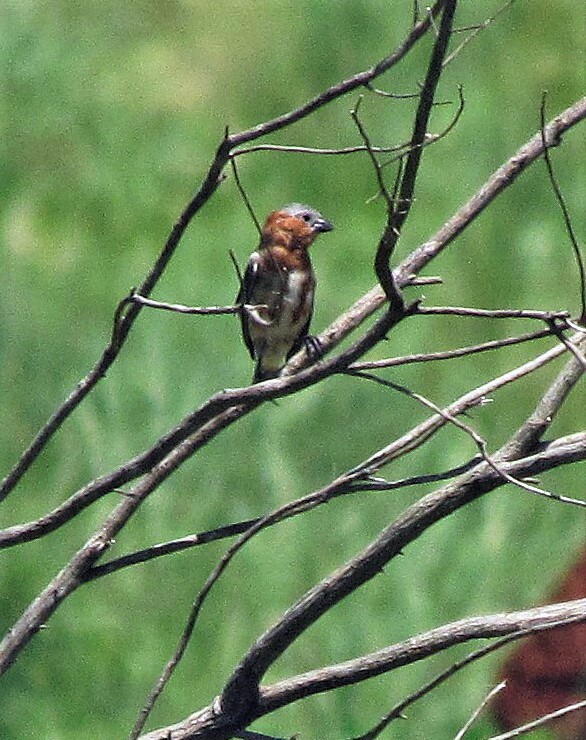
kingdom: Animalia
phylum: Chordata
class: Aves
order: Passeriformes
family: Thraupidae
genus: Sporophila
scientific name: Sporophila cinnamomea
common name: Chestnut seedeater
